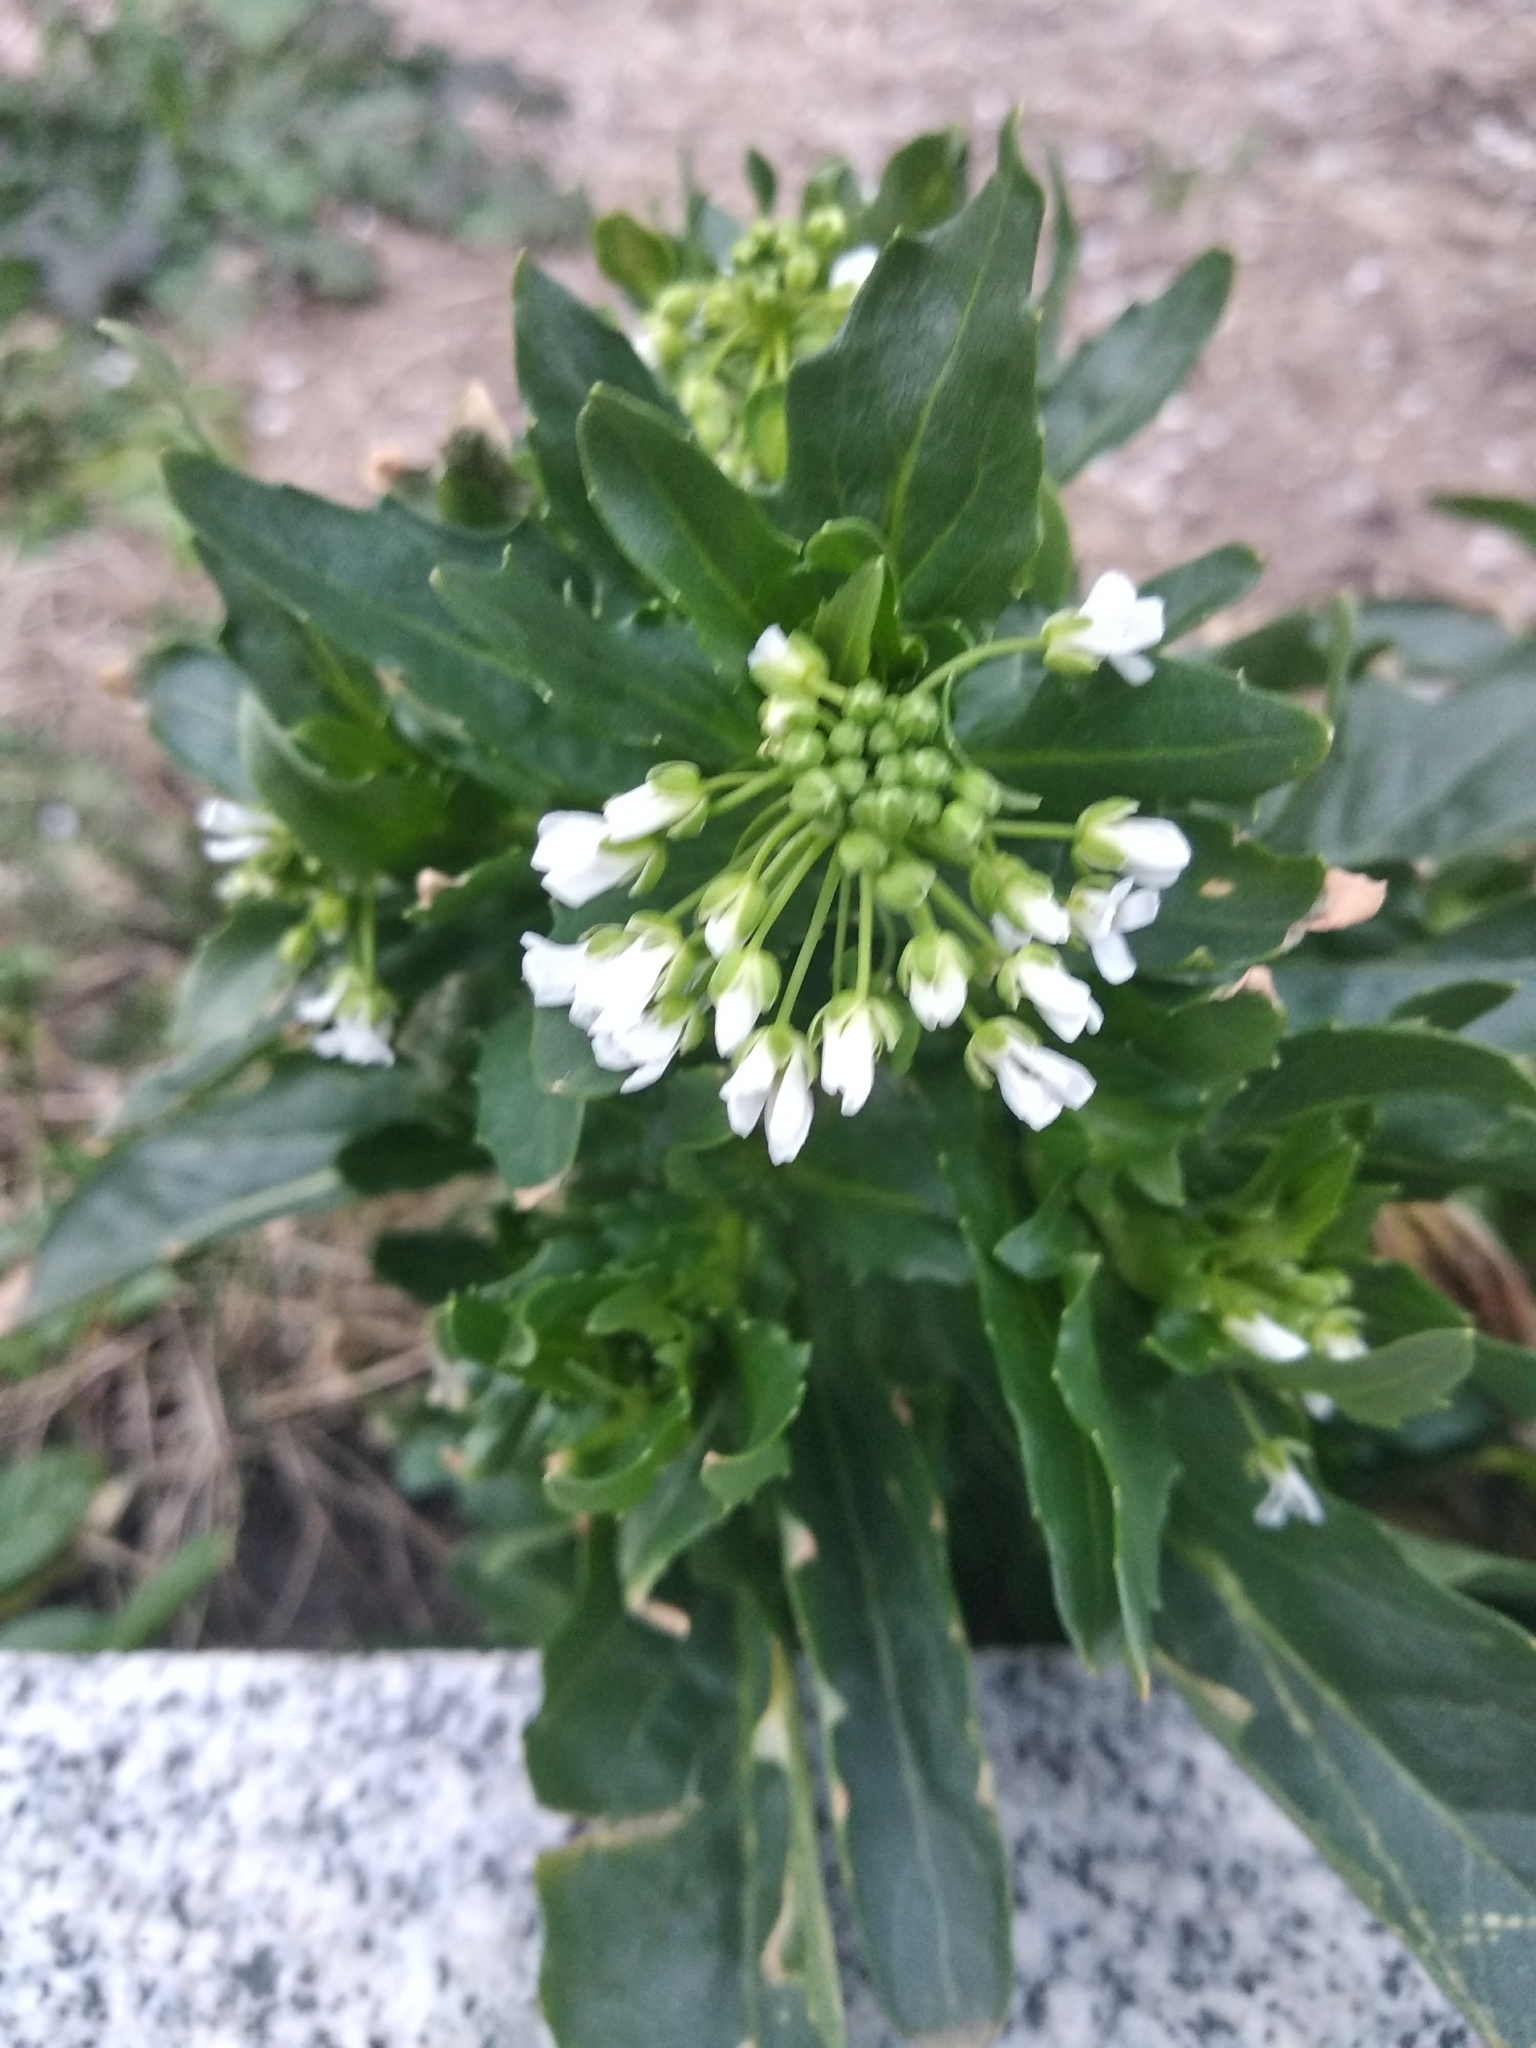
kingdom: Plantae
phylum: Tracheophyta
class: Magnoliopsida
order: Brassicales
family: Brassicaceae
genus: Thlaspi
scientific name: Thlaspi arvense
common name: Field pennycress
